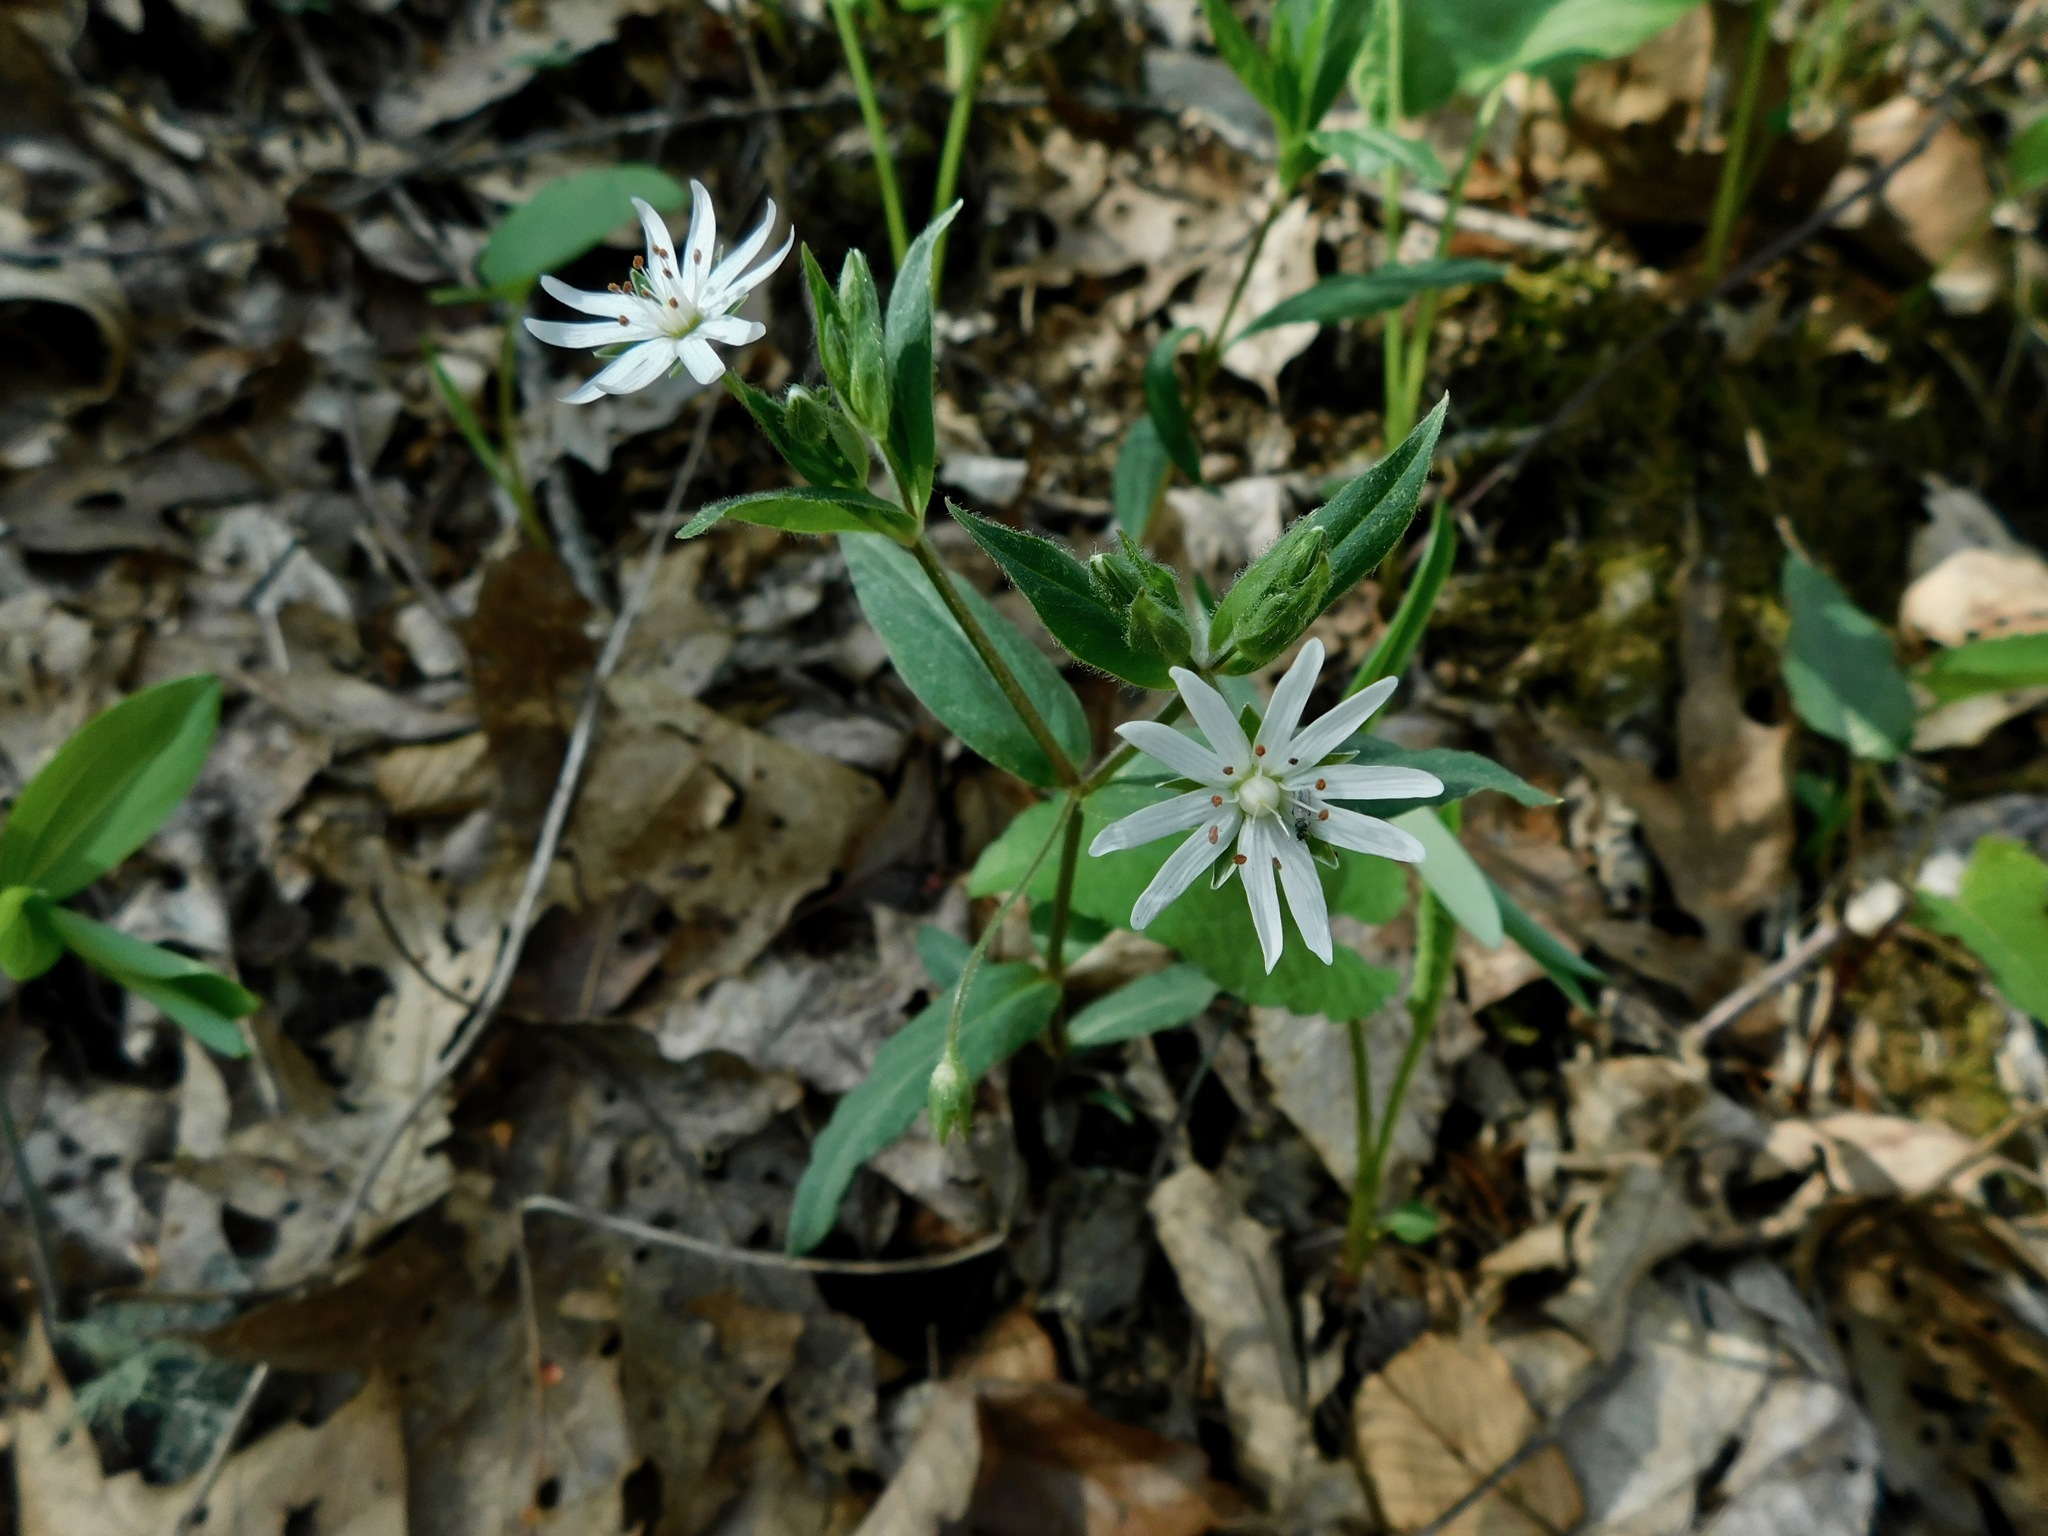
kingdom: Plantae
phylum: Tracheophyta
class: Magnoliopsida
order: Caryophyllales
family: Caryophyllaceae
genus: Stellaria
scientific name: Stellaria pubera
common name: Star chickweed
